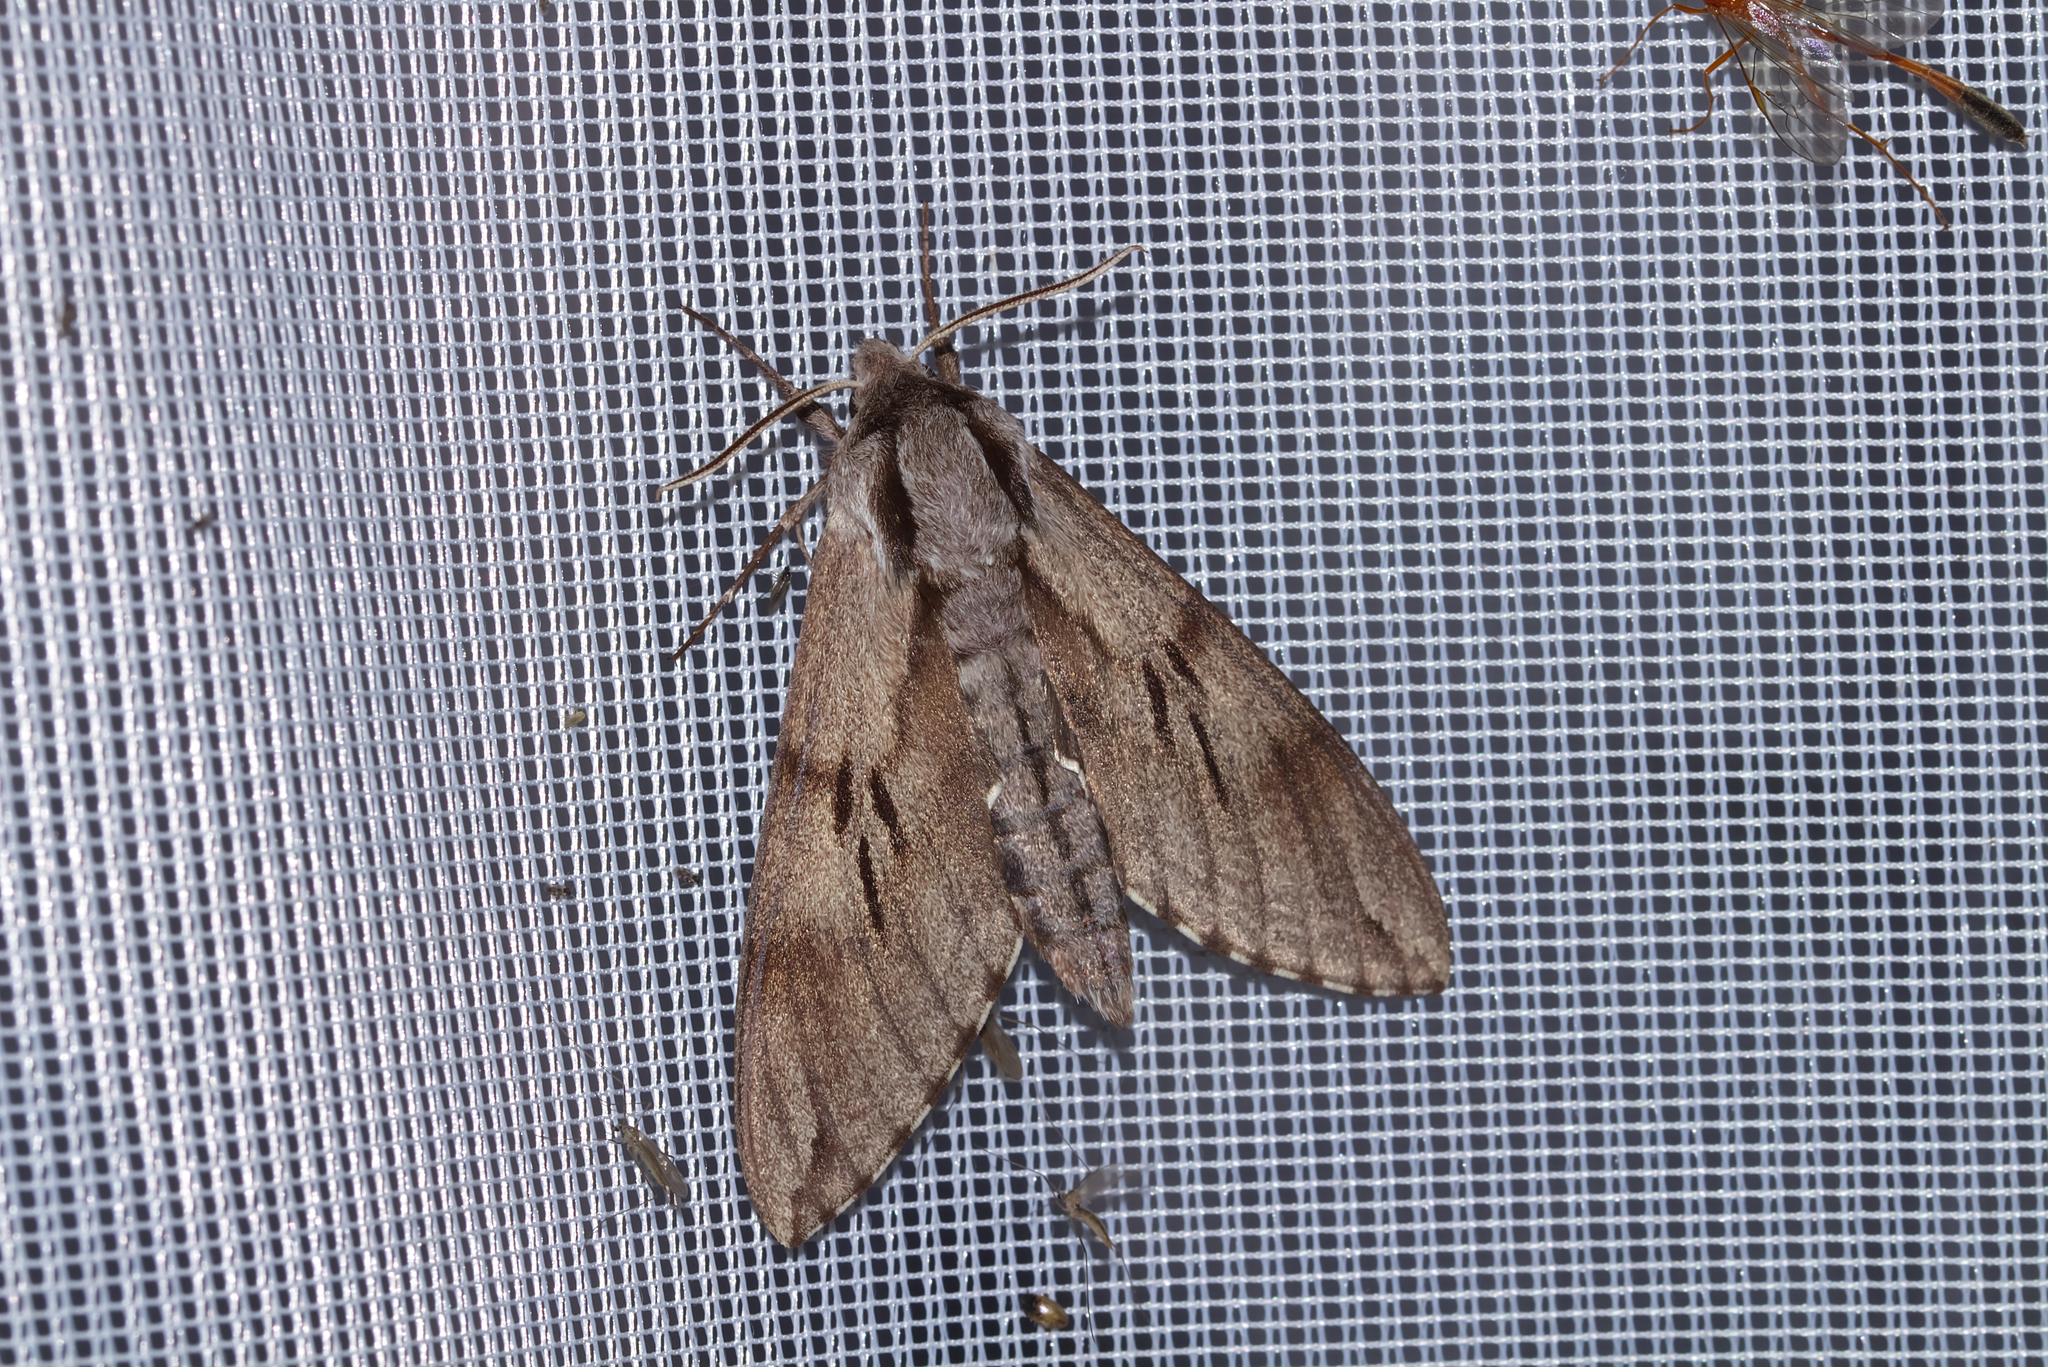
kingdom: Animalia
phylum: Arthropoda
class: Insecta
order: Lepidoptera
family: Sphingidae
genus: Sphinx
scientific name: Sphinx pinastri
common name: Pine hawk-moth
